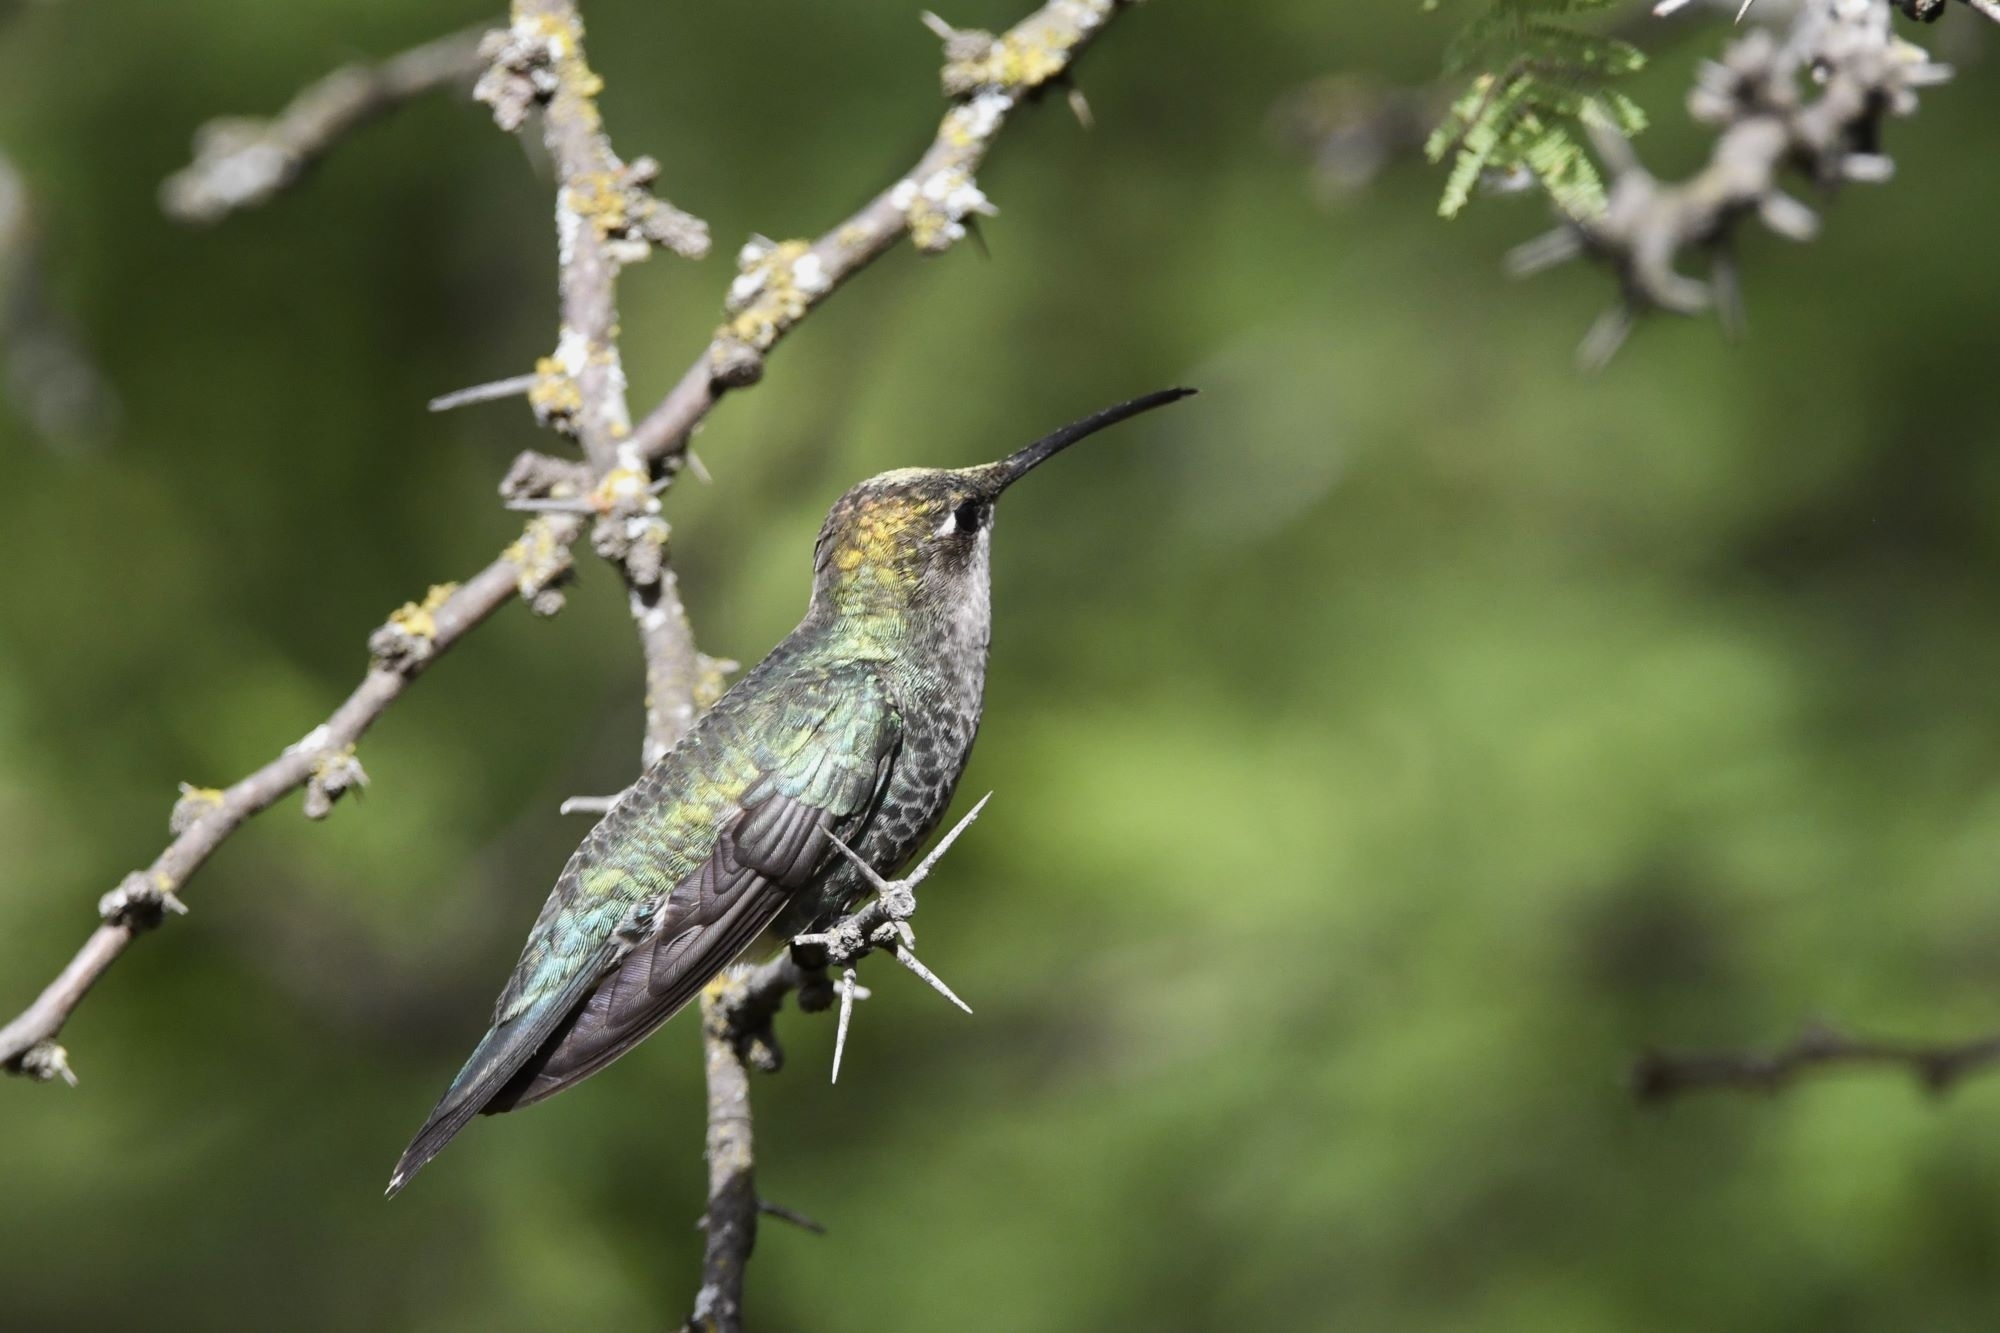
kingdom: Animalia
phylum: Chordata
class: Aves
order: Apodiformes
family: Trochilidae
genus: Heliomaster
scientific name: Heliomaster furcifer
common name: Blue-tufted starthroat
